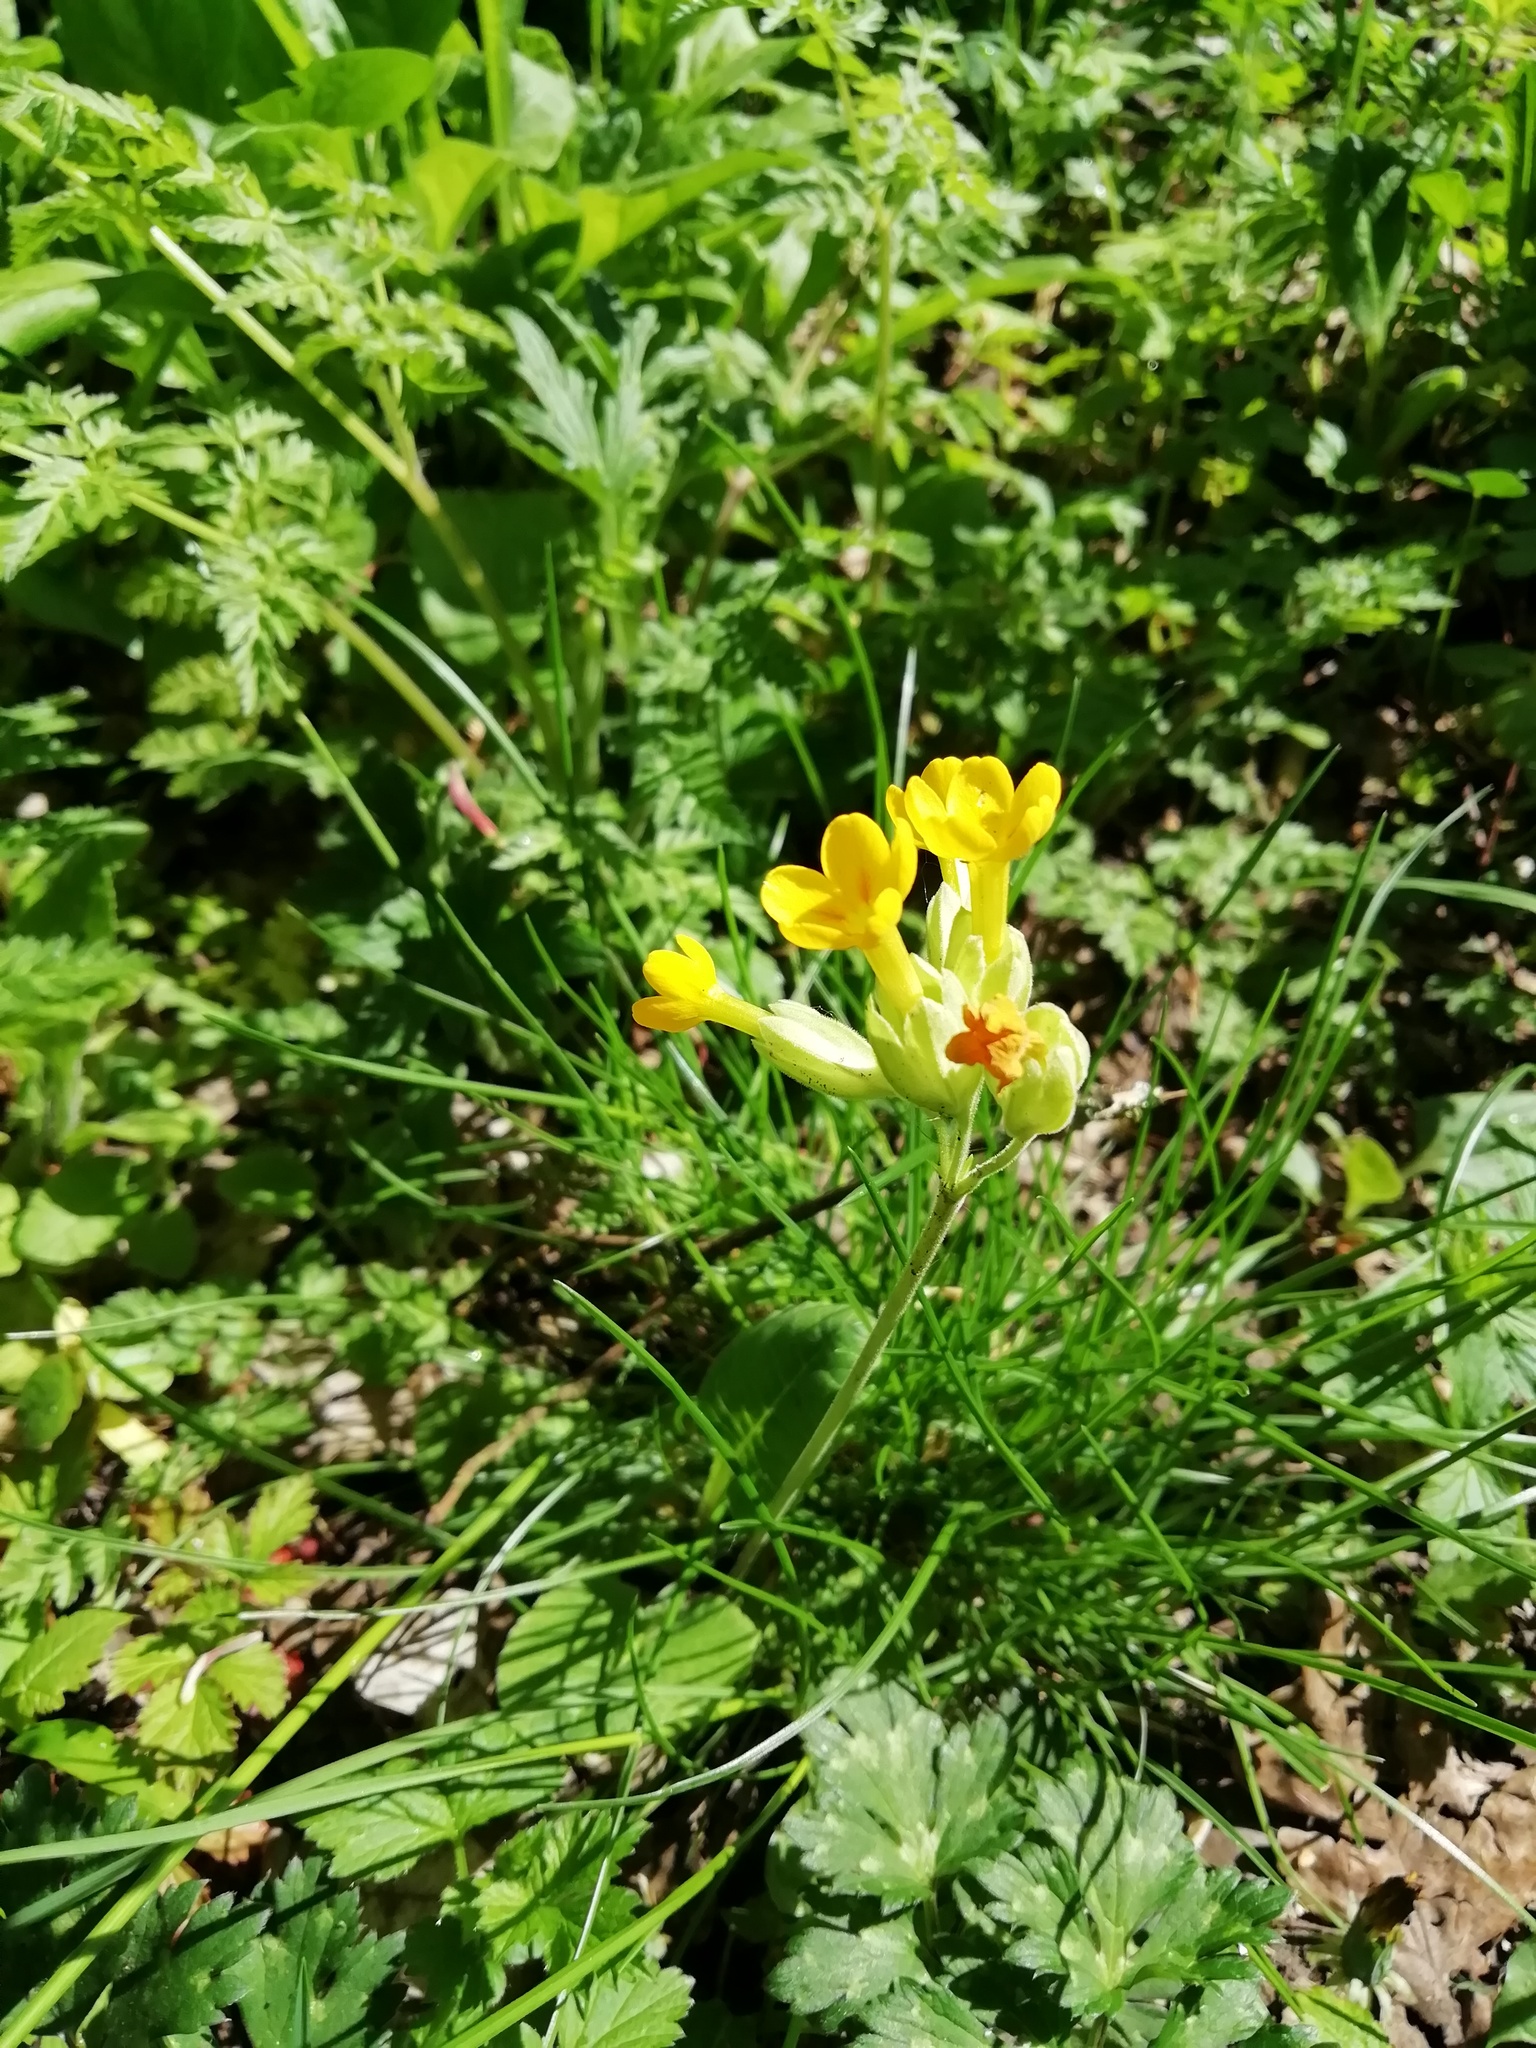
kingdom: Plantae
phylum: Tracheophyta
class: Magnoliopsida
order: Ericales
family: Primulaceae
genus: Primula
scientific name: Primula veris
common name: Cowslip
